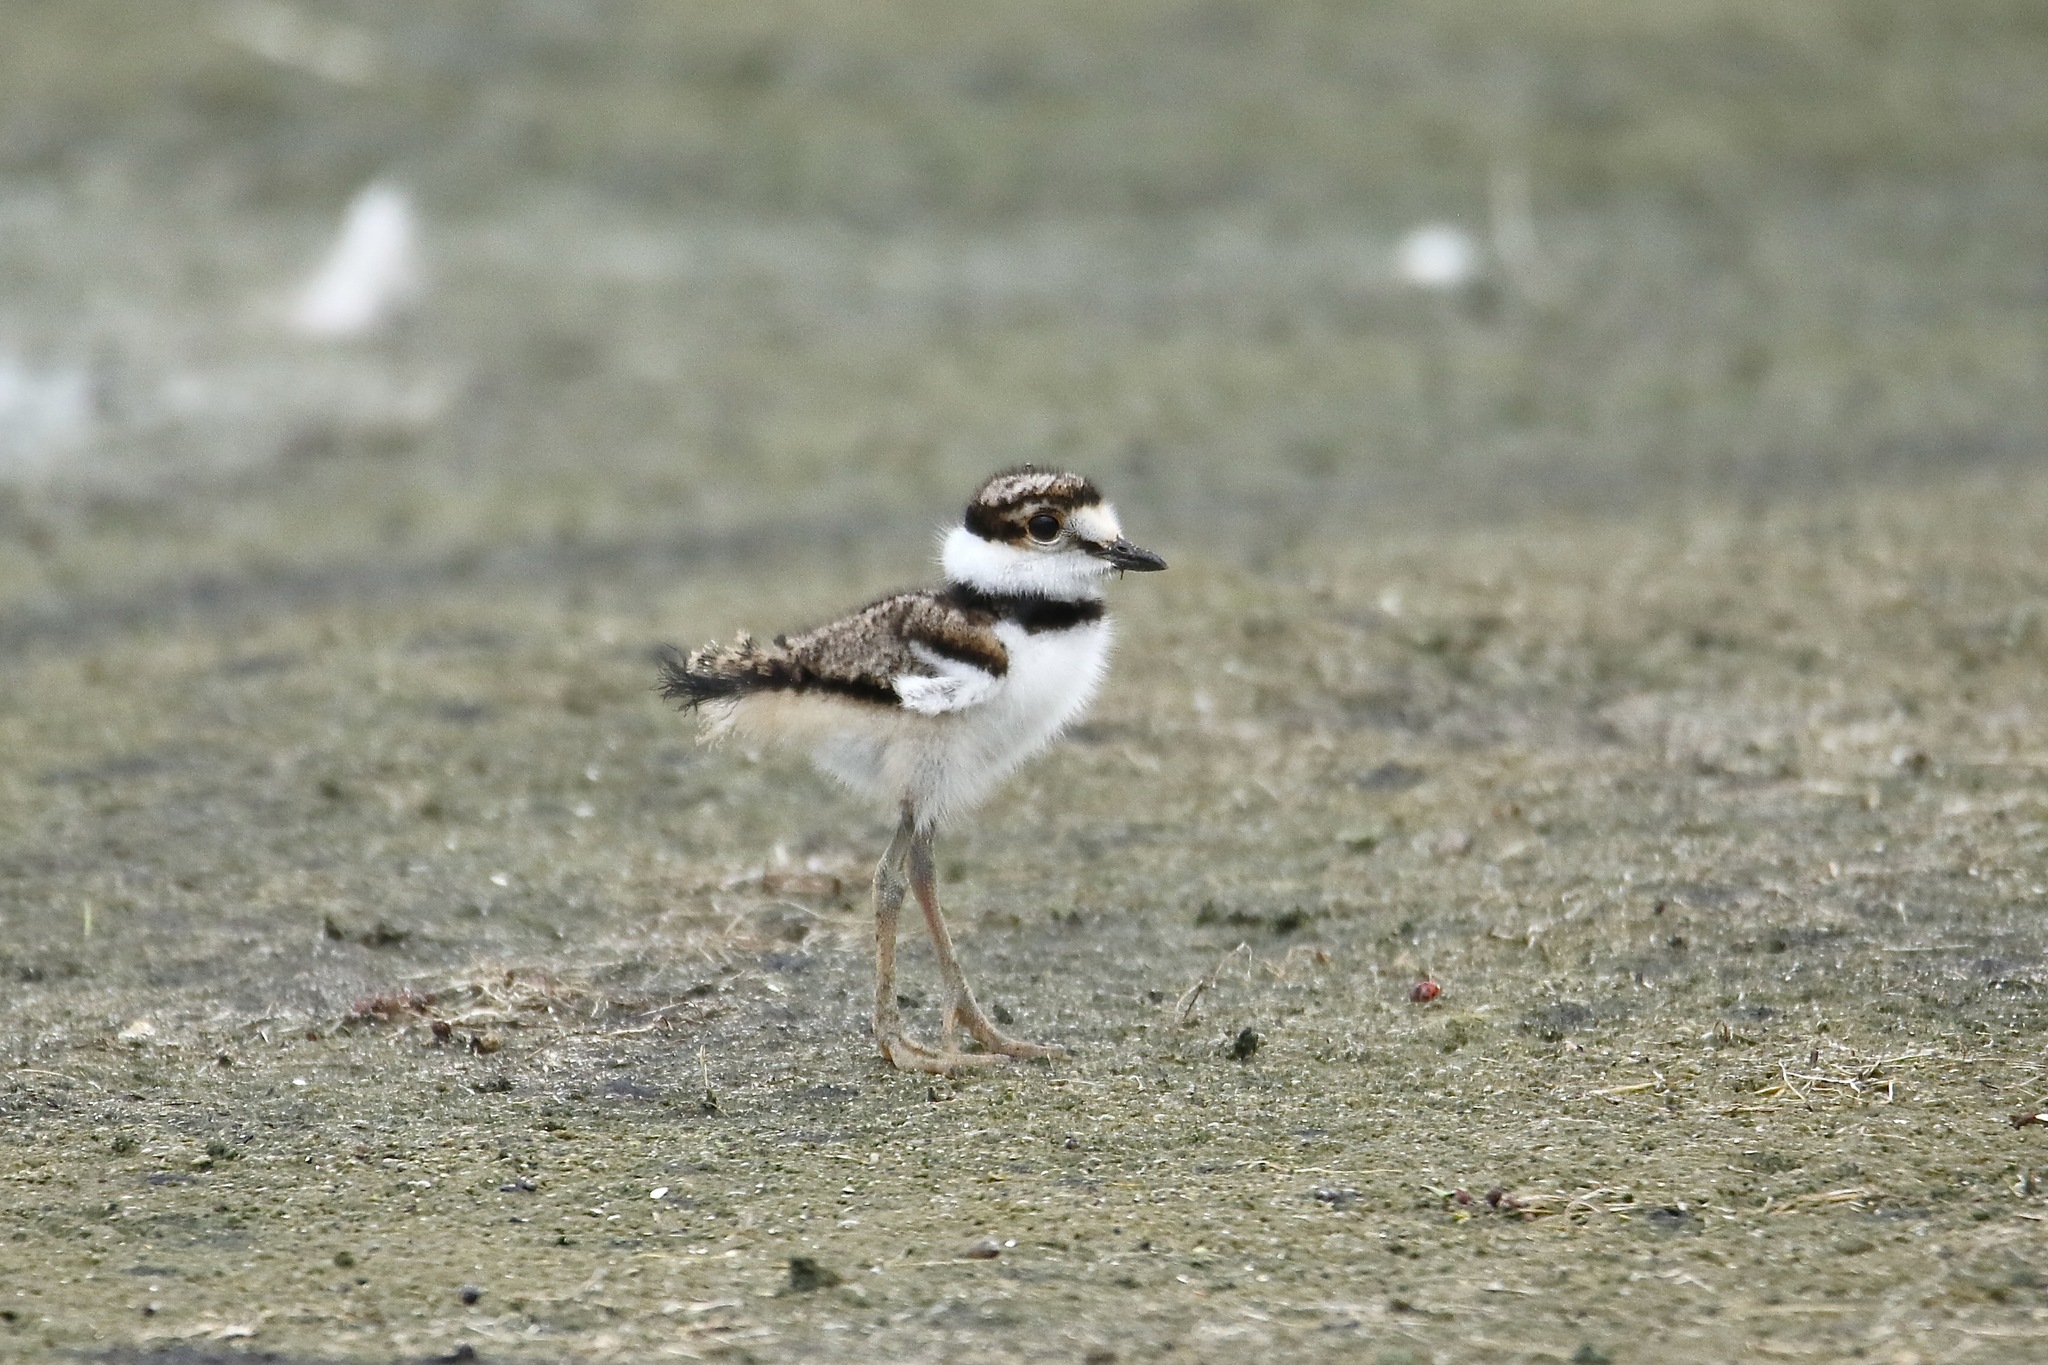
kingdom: Animalia
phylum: Chordata
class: Aves
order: Charadriiformes
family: Charadriidae
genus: Charadrius
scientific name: Charadrius vociferus
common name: Killdeer
